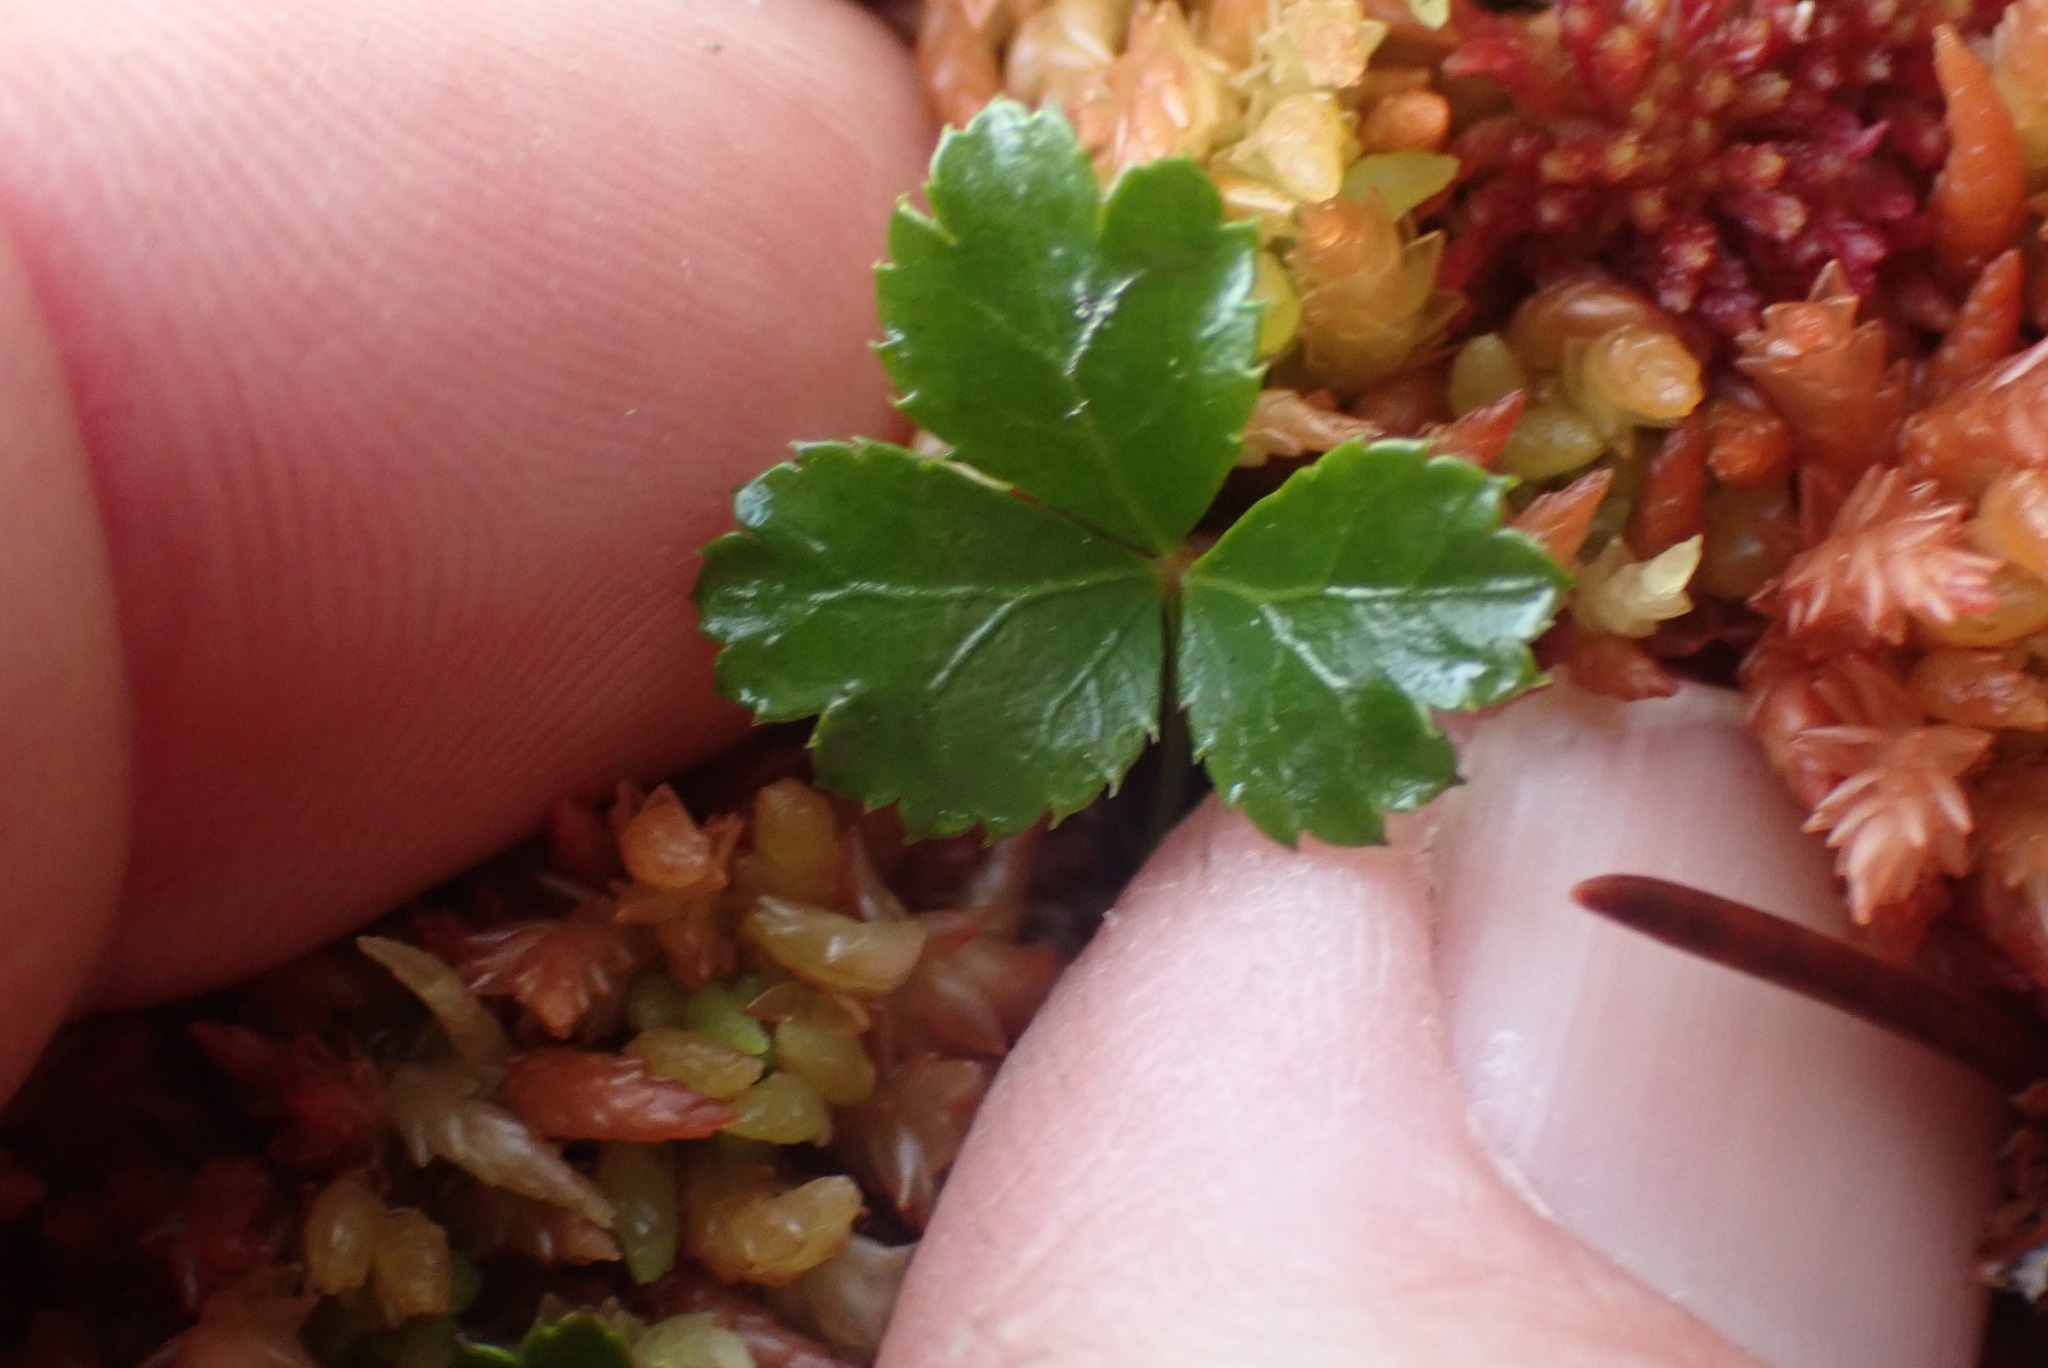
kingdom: Plantae
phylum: Tracheophyta
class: Magnoliopsida
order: Ranunculales
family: Ranunculaceae
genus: Coptis
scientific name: Coptis trifolia
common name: Canker-root
